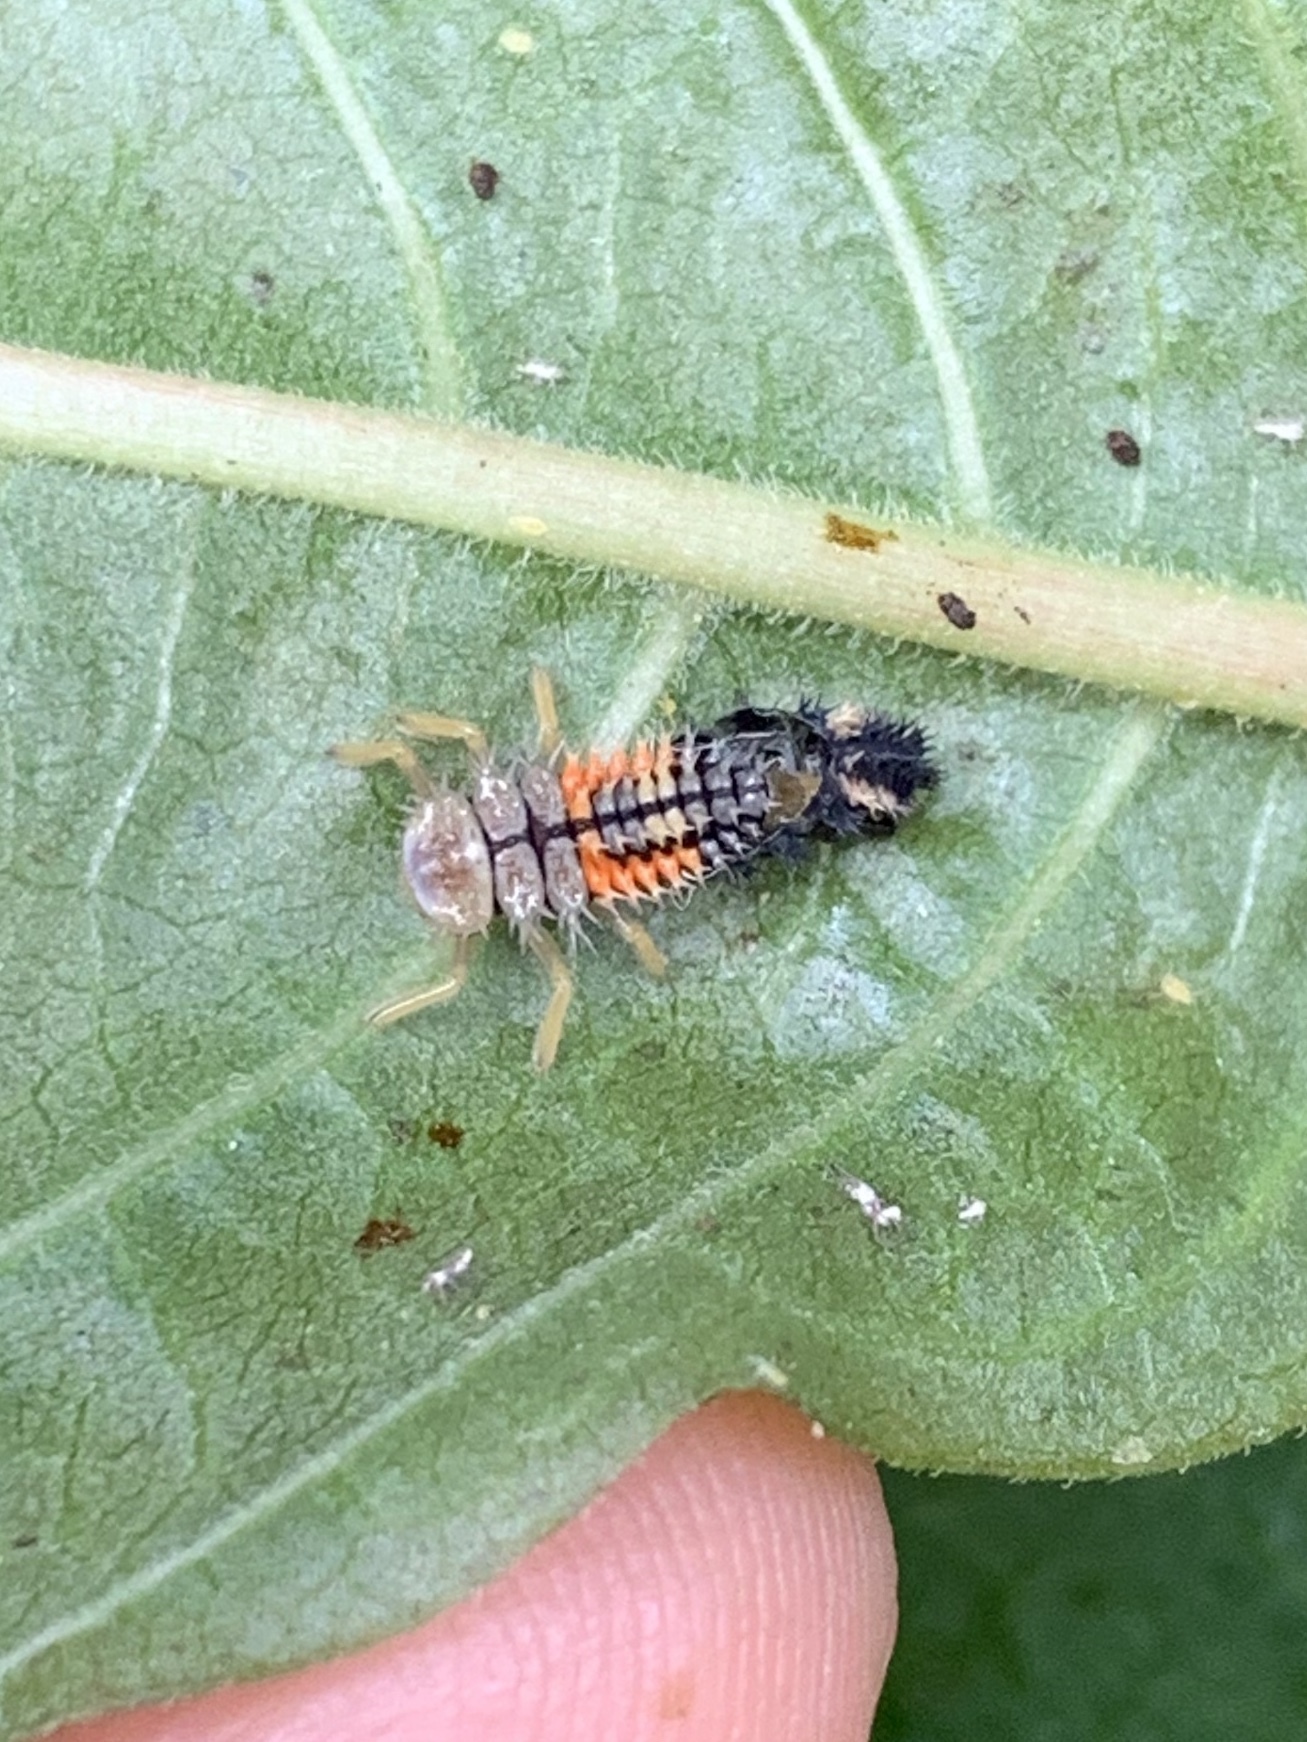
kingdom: Animalia
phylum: Arthropoda
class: Insecta
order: Coleoptera
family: Coccinellidae
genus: Harmonia
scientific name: Harmonia axyridis
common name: Harlequin ladybird
